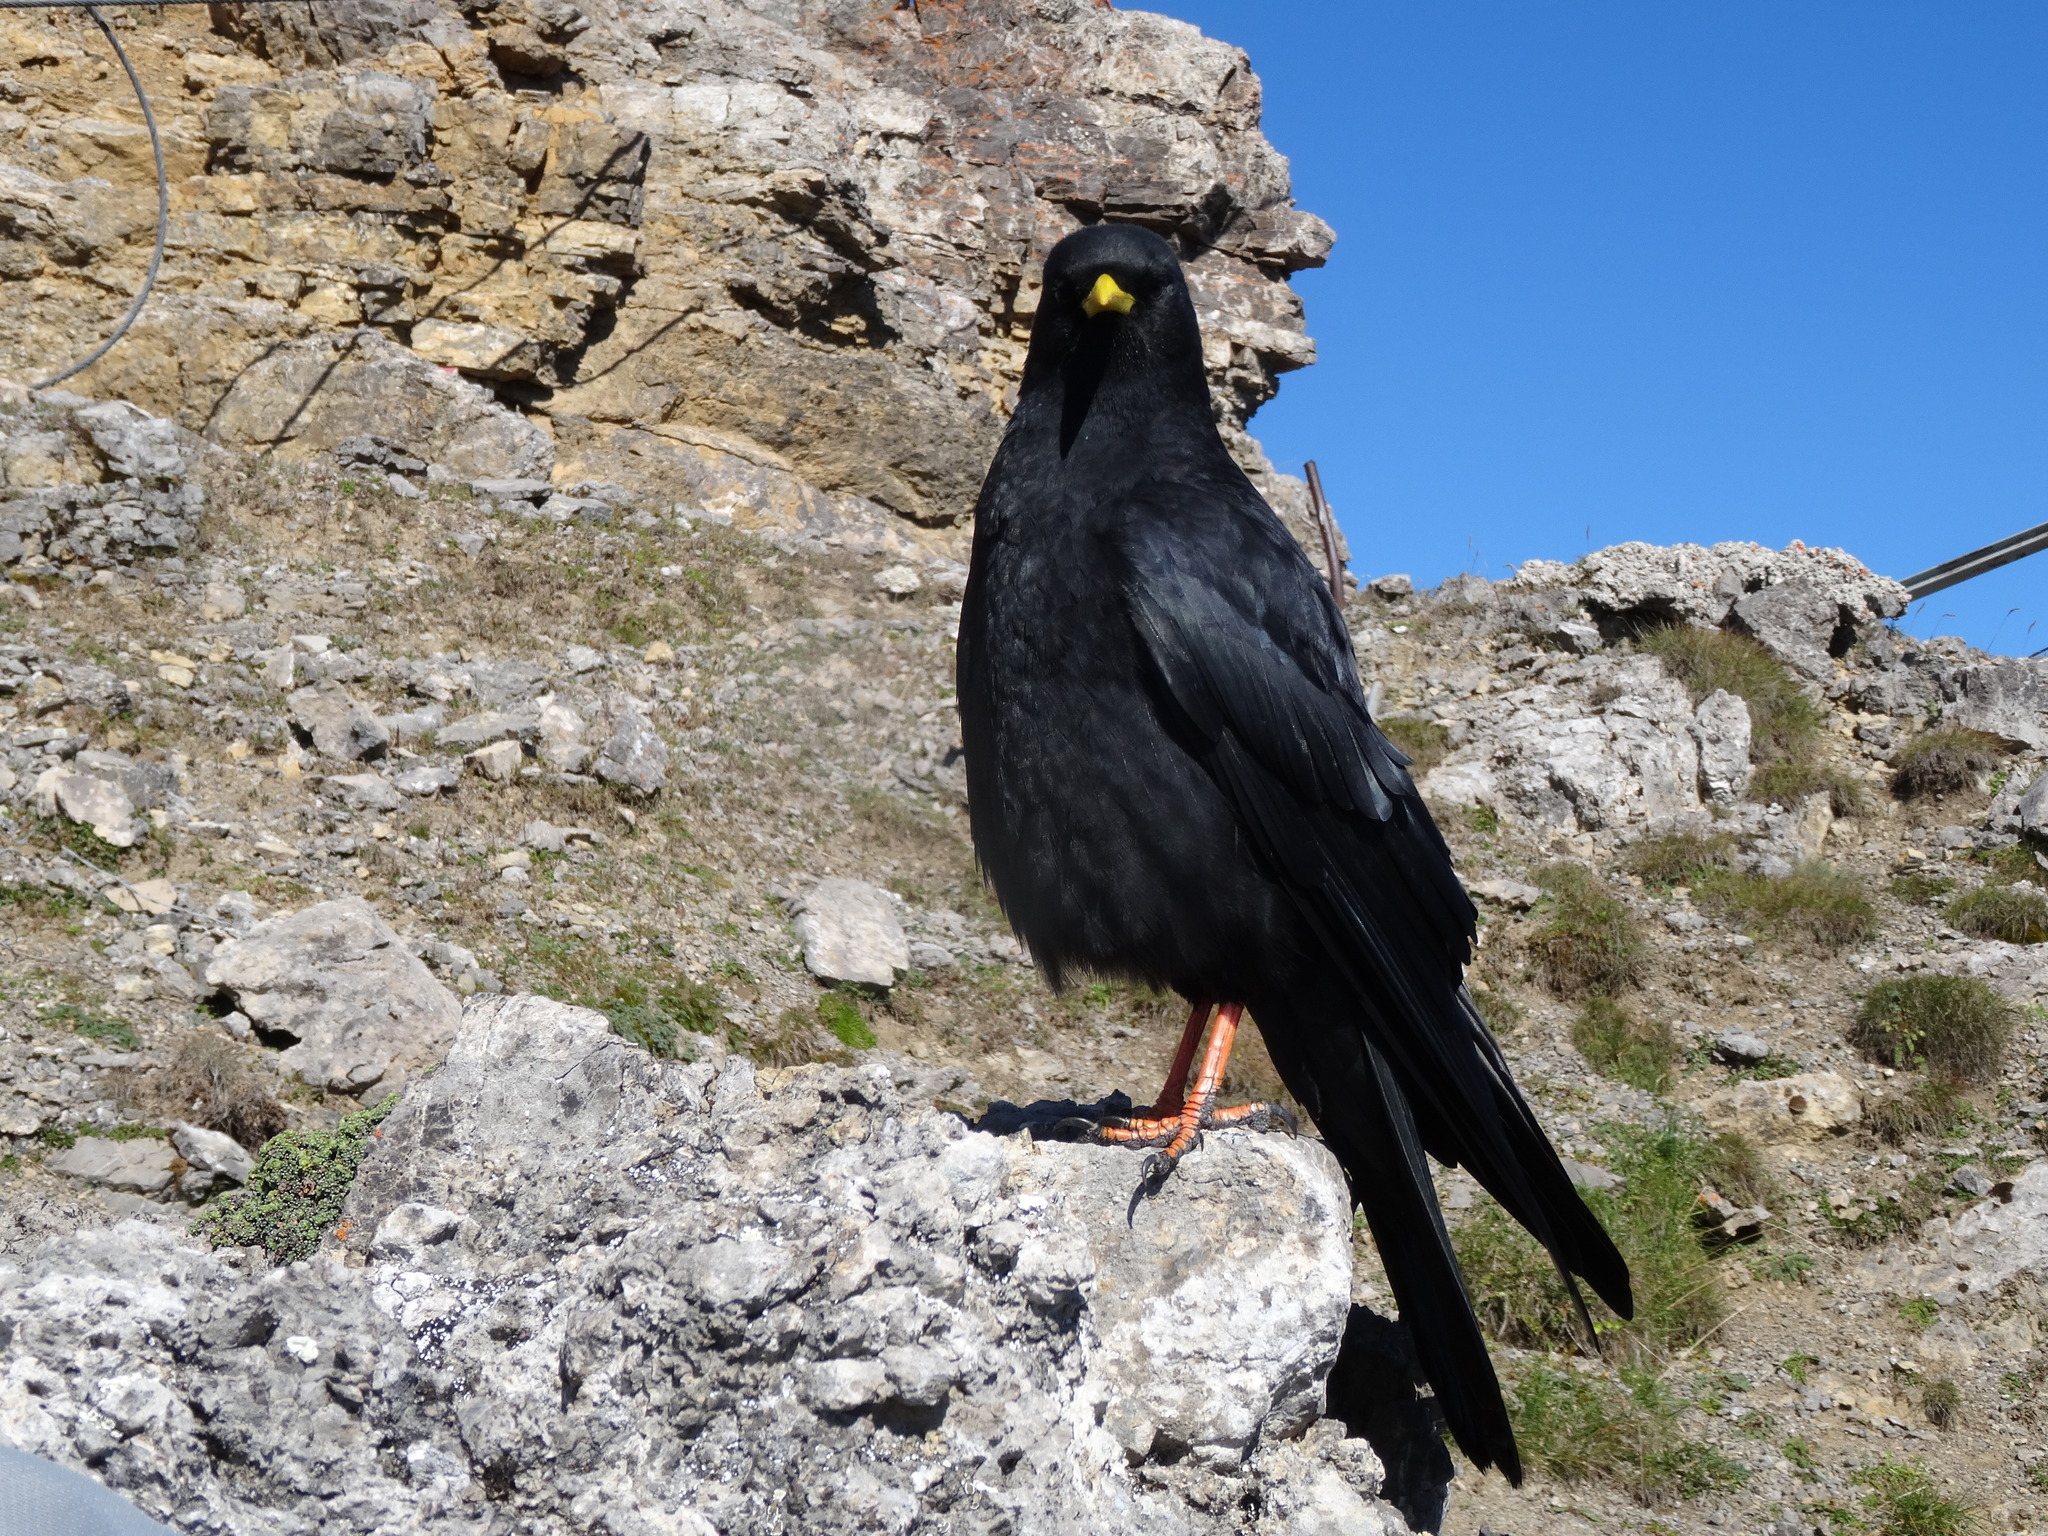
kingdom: Animalia
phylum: Chordata
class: Aves
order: Passeriformes
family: Corvidae
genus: Pyrrhocorax
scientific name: Pyrrhocorax graculus
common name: Alpine chough
